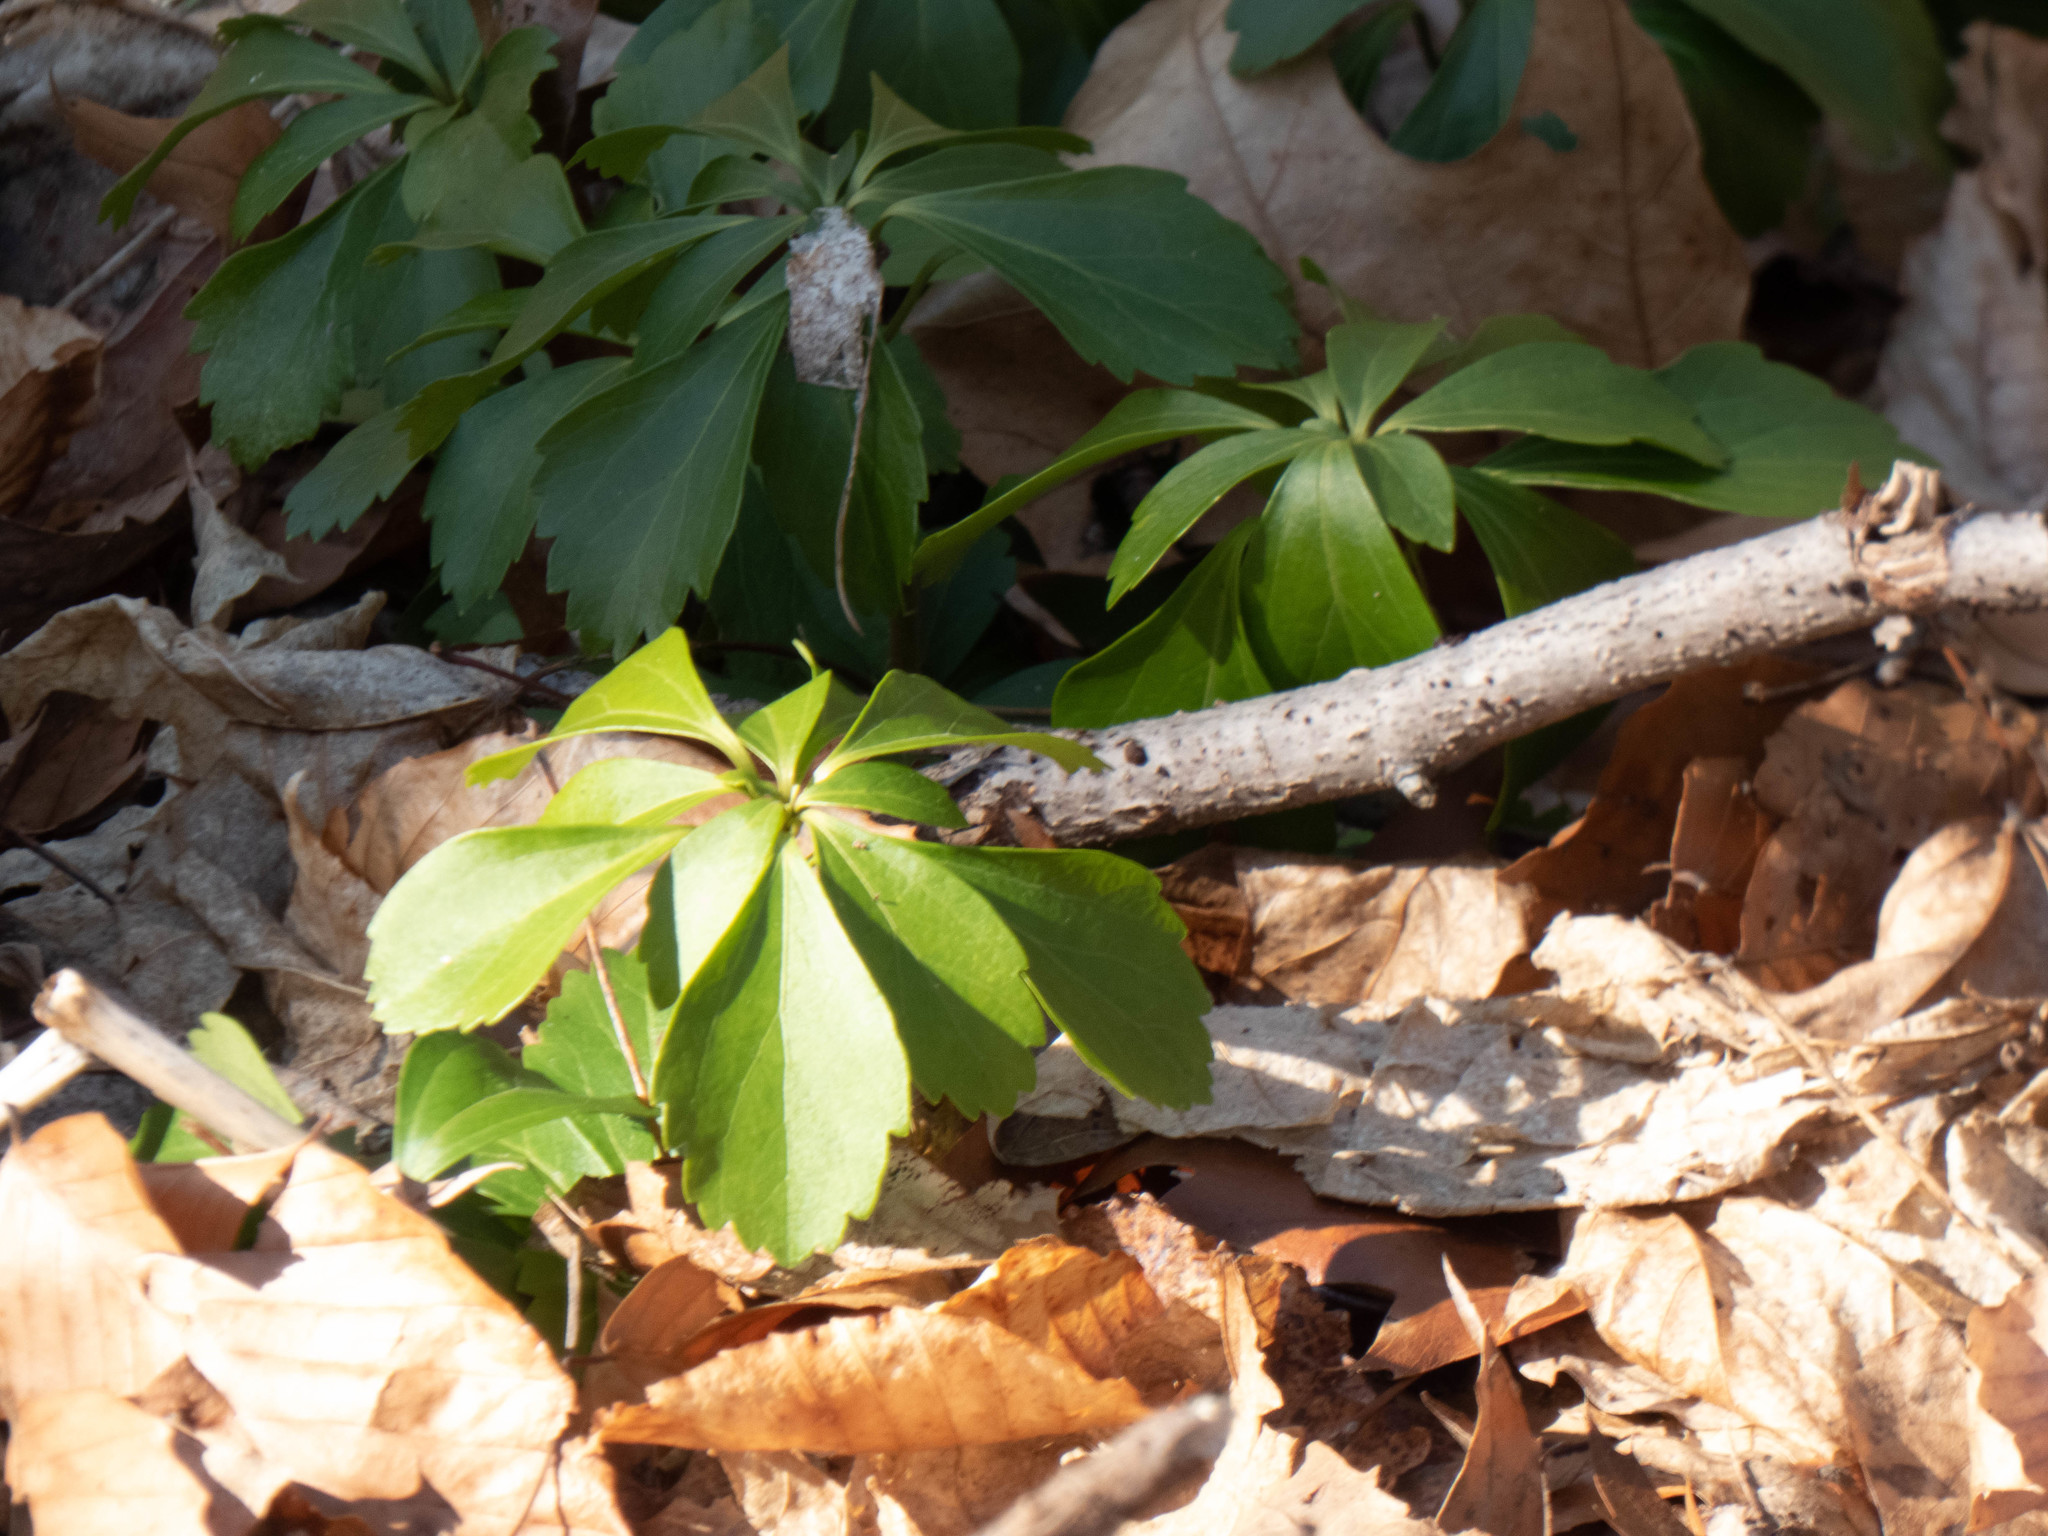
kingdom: Plantae
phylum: Tracheophyta
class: Magnoliopsida
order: Buxales
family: Buxaceae
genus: Pachysandra
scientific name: Pachysandra terminalis
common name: Japanese pachysandra
